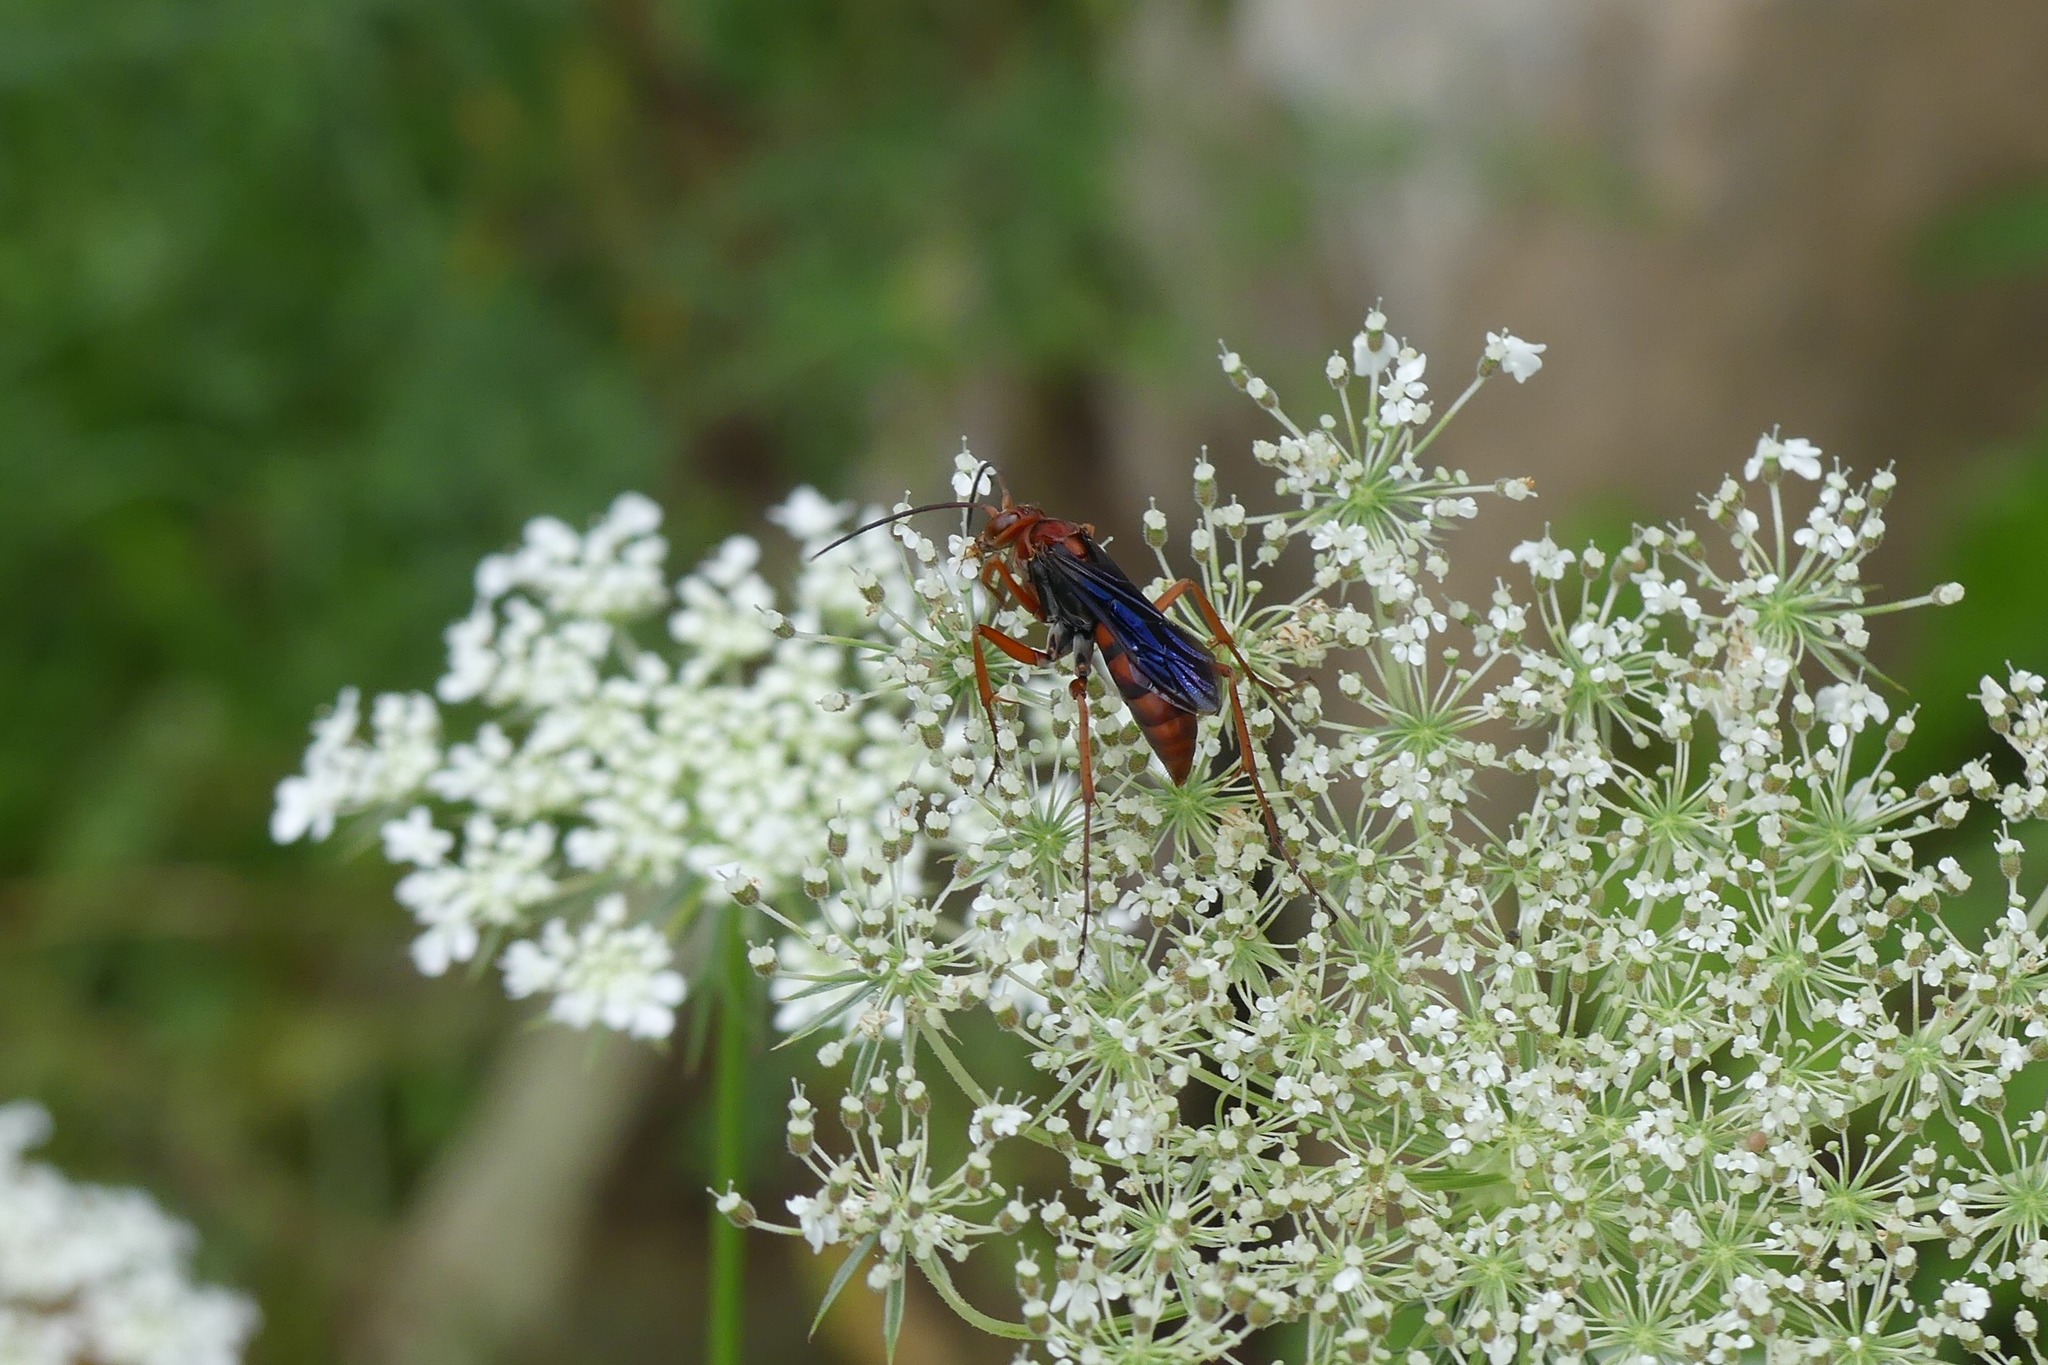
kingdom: Animalia
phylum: Arthropoda
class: Insecta
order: Hymenoptera
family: Pompilidae
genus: Tachypompilus
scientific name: Tachypompilus ferrugineus
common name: Rusty spider wasp
